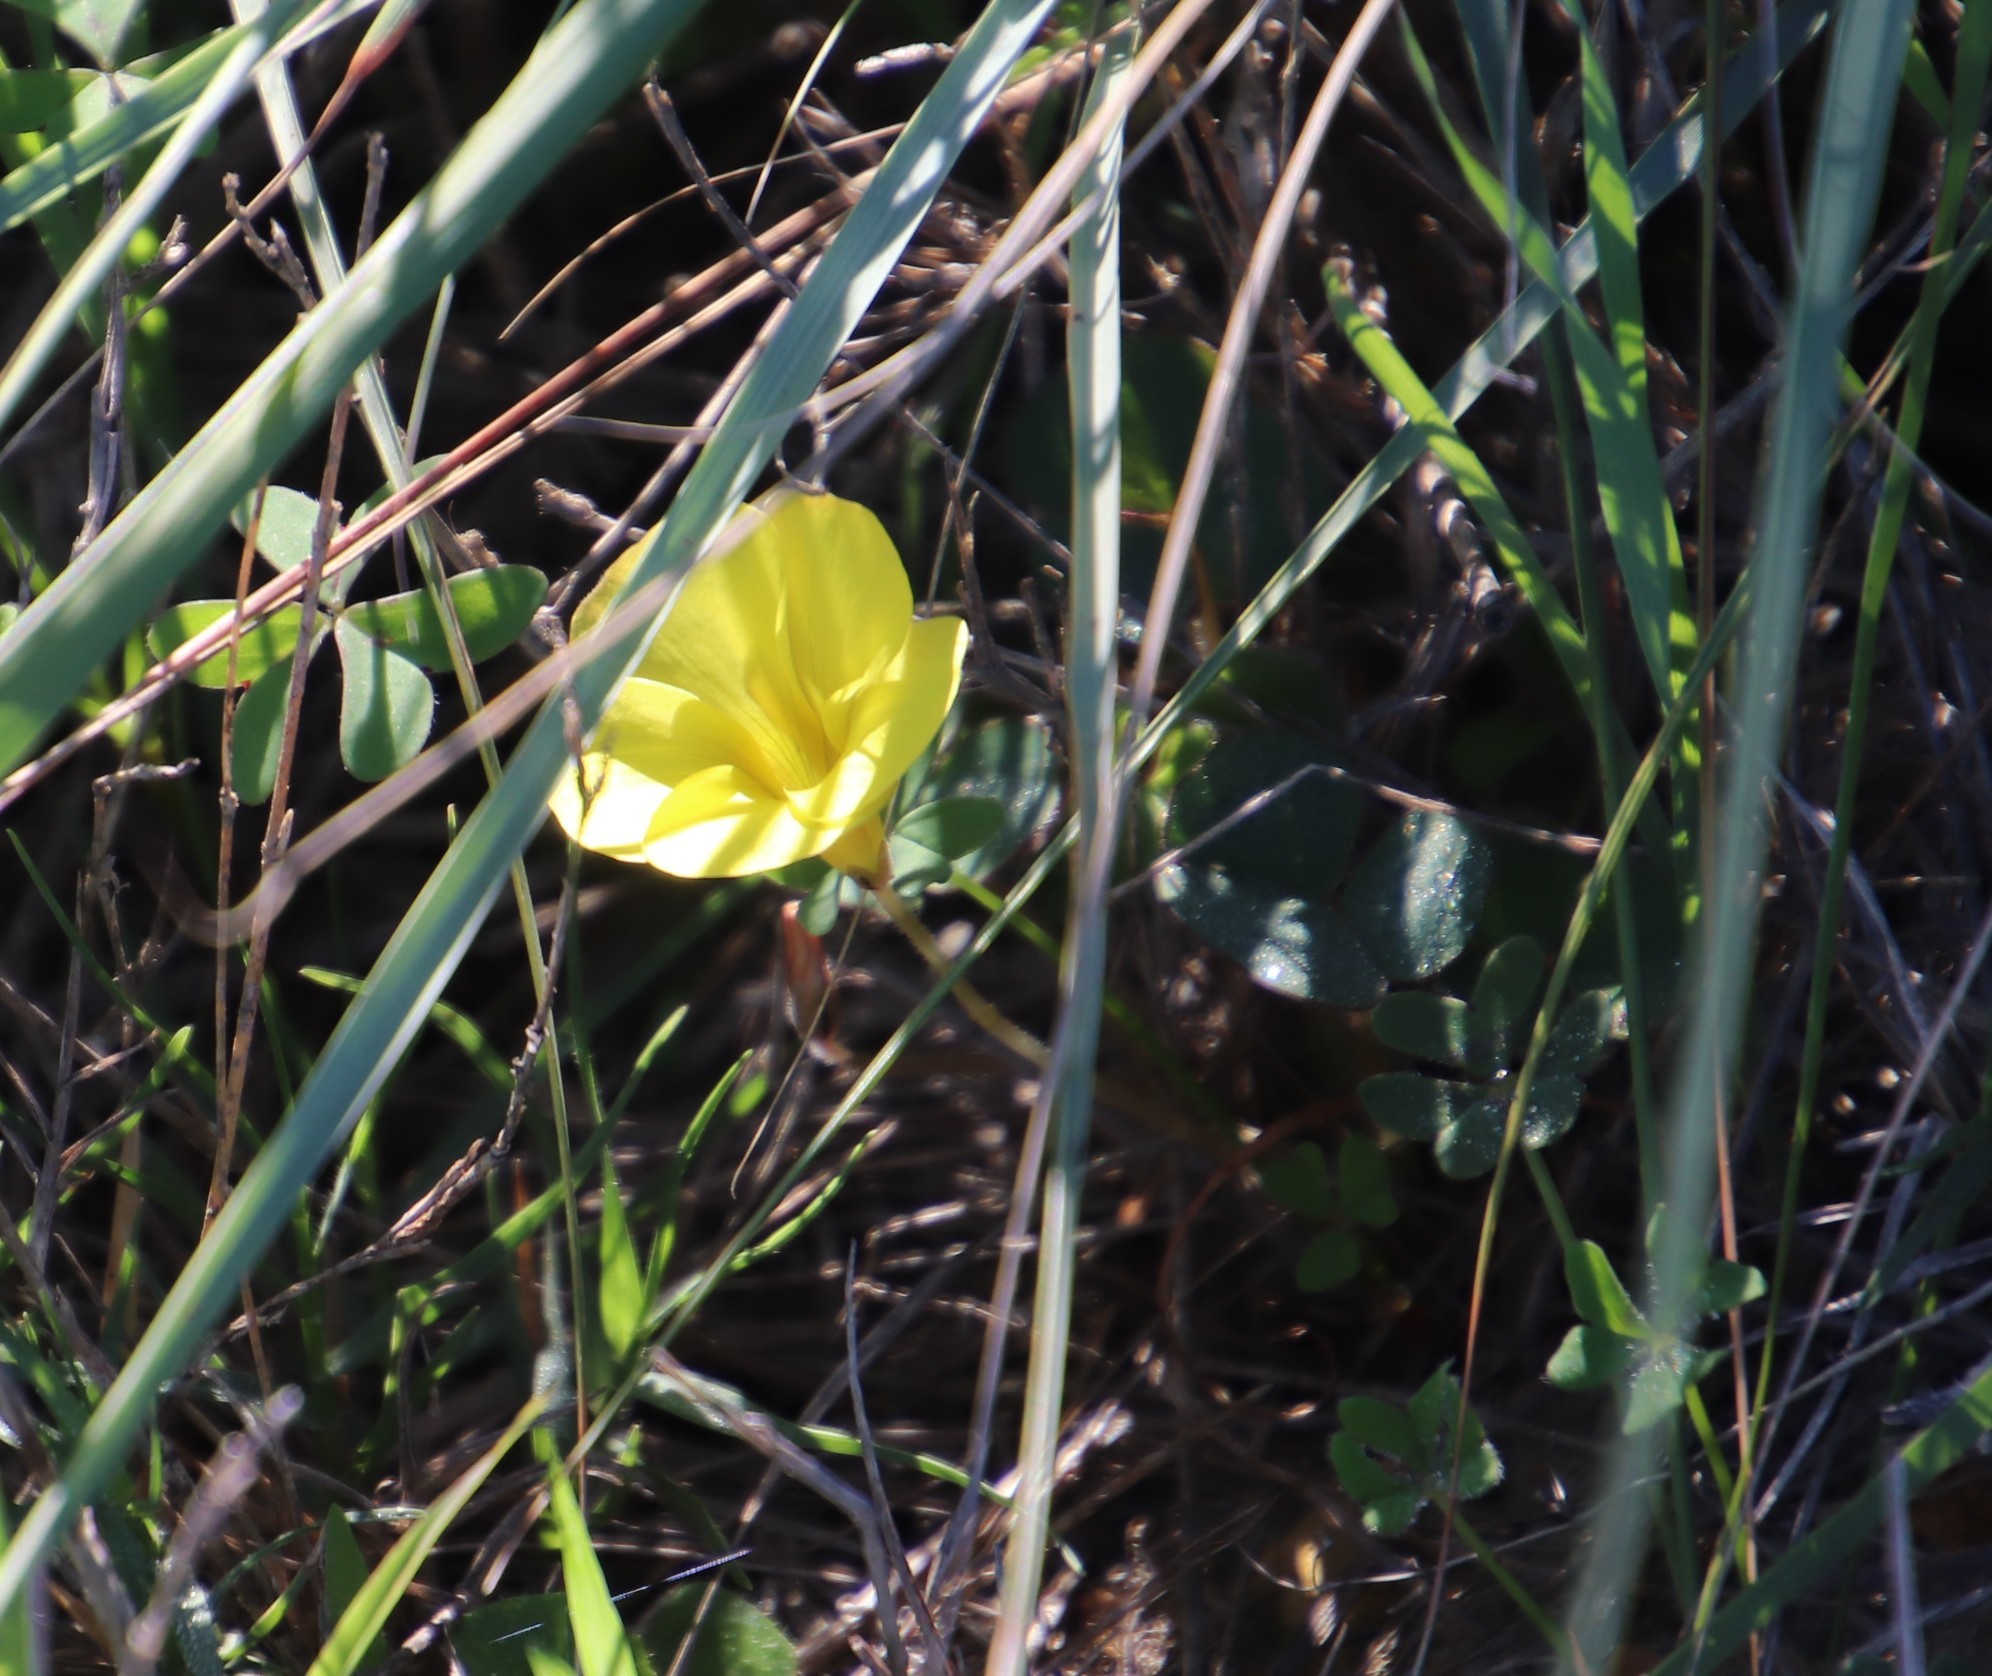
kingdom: Plantae
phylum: Tracheophyta
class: Magnoliopsida
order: Oxalidales
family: Oxalidaceae
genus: Oxalis
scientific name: Oxalis luteola
